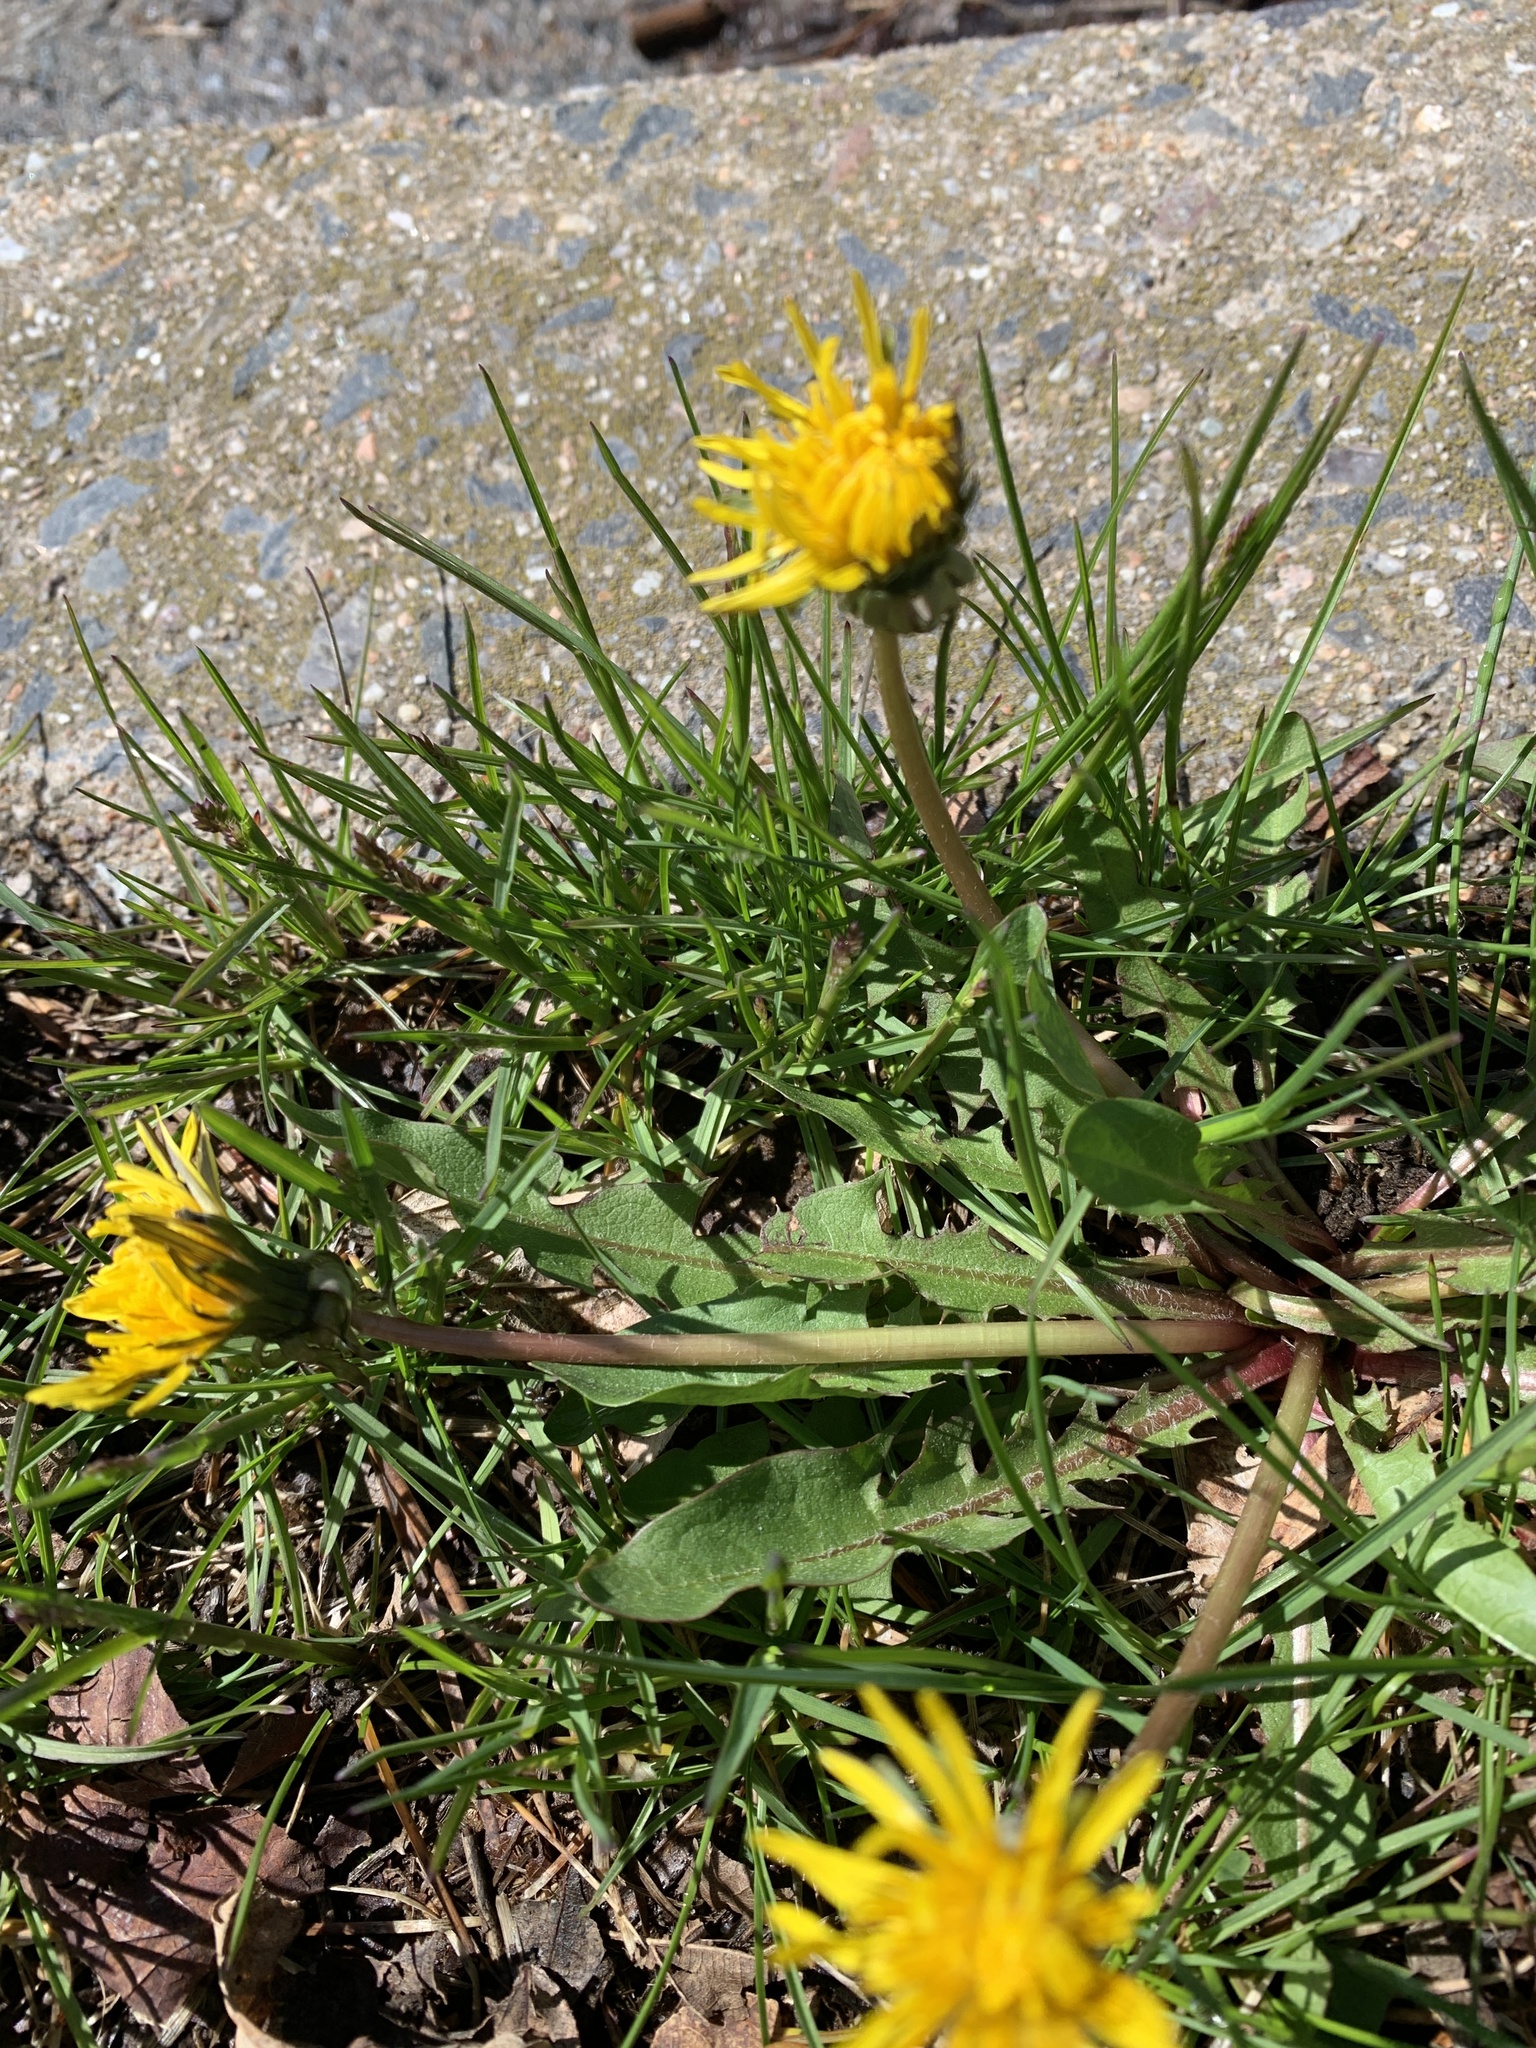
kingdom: Plantae
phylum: Tracheophyta
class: Magnoliopsida
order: Asterales
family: Asteraceae
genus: Taraxacum
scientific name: Taraxacum officinale
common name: Common dandelion
